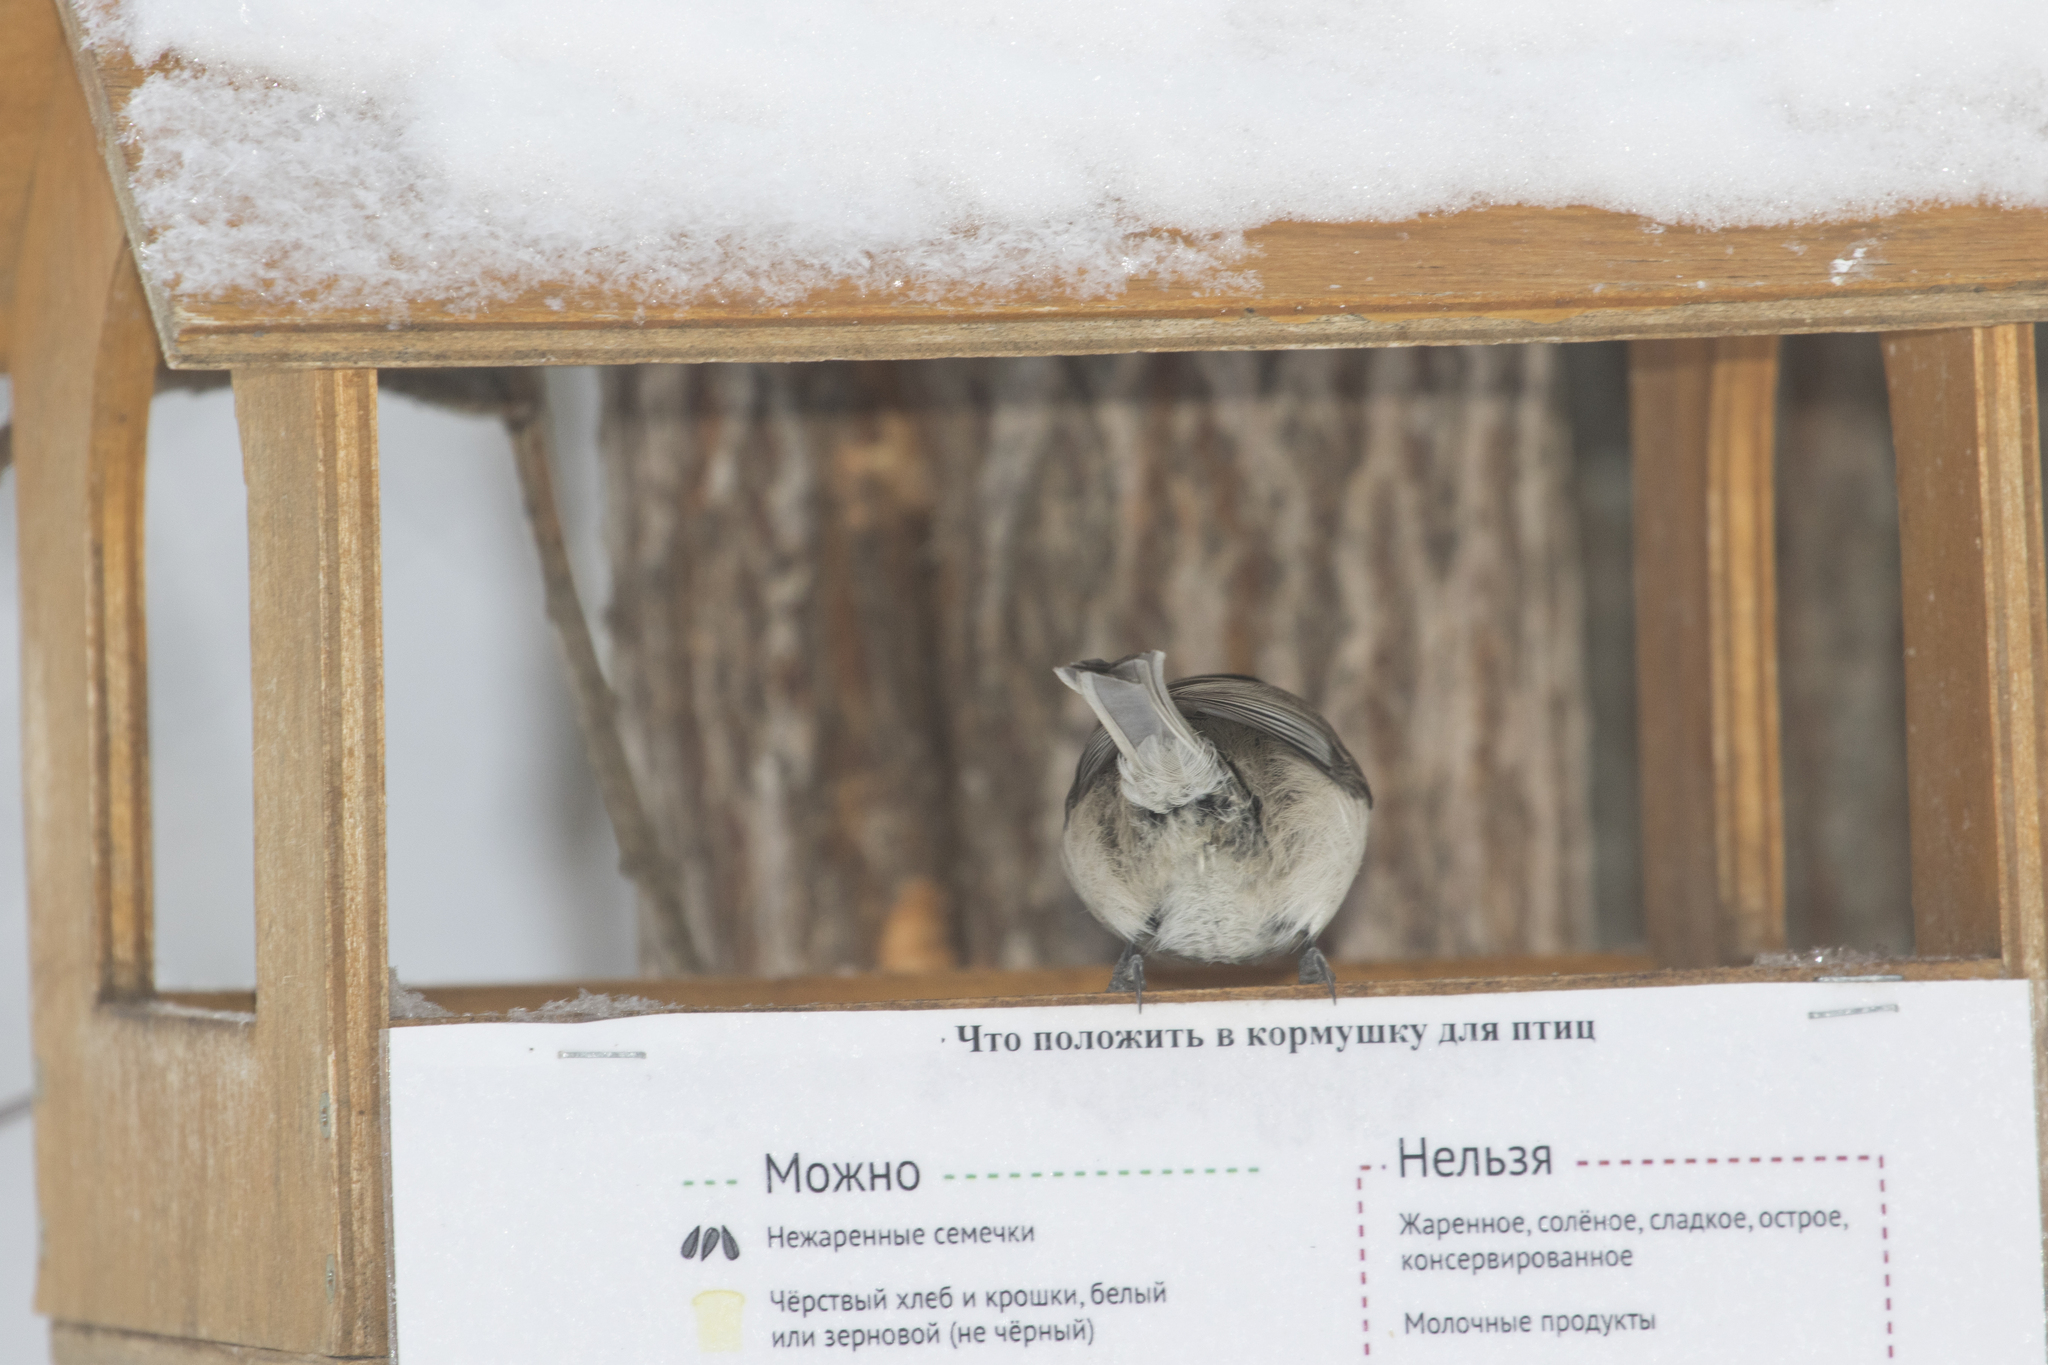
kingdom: Animalia
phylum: Chordata
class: Aves
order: Passeriformes
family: Paridae
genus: Poecile
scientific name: Poecile montanus
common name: Willow tit
